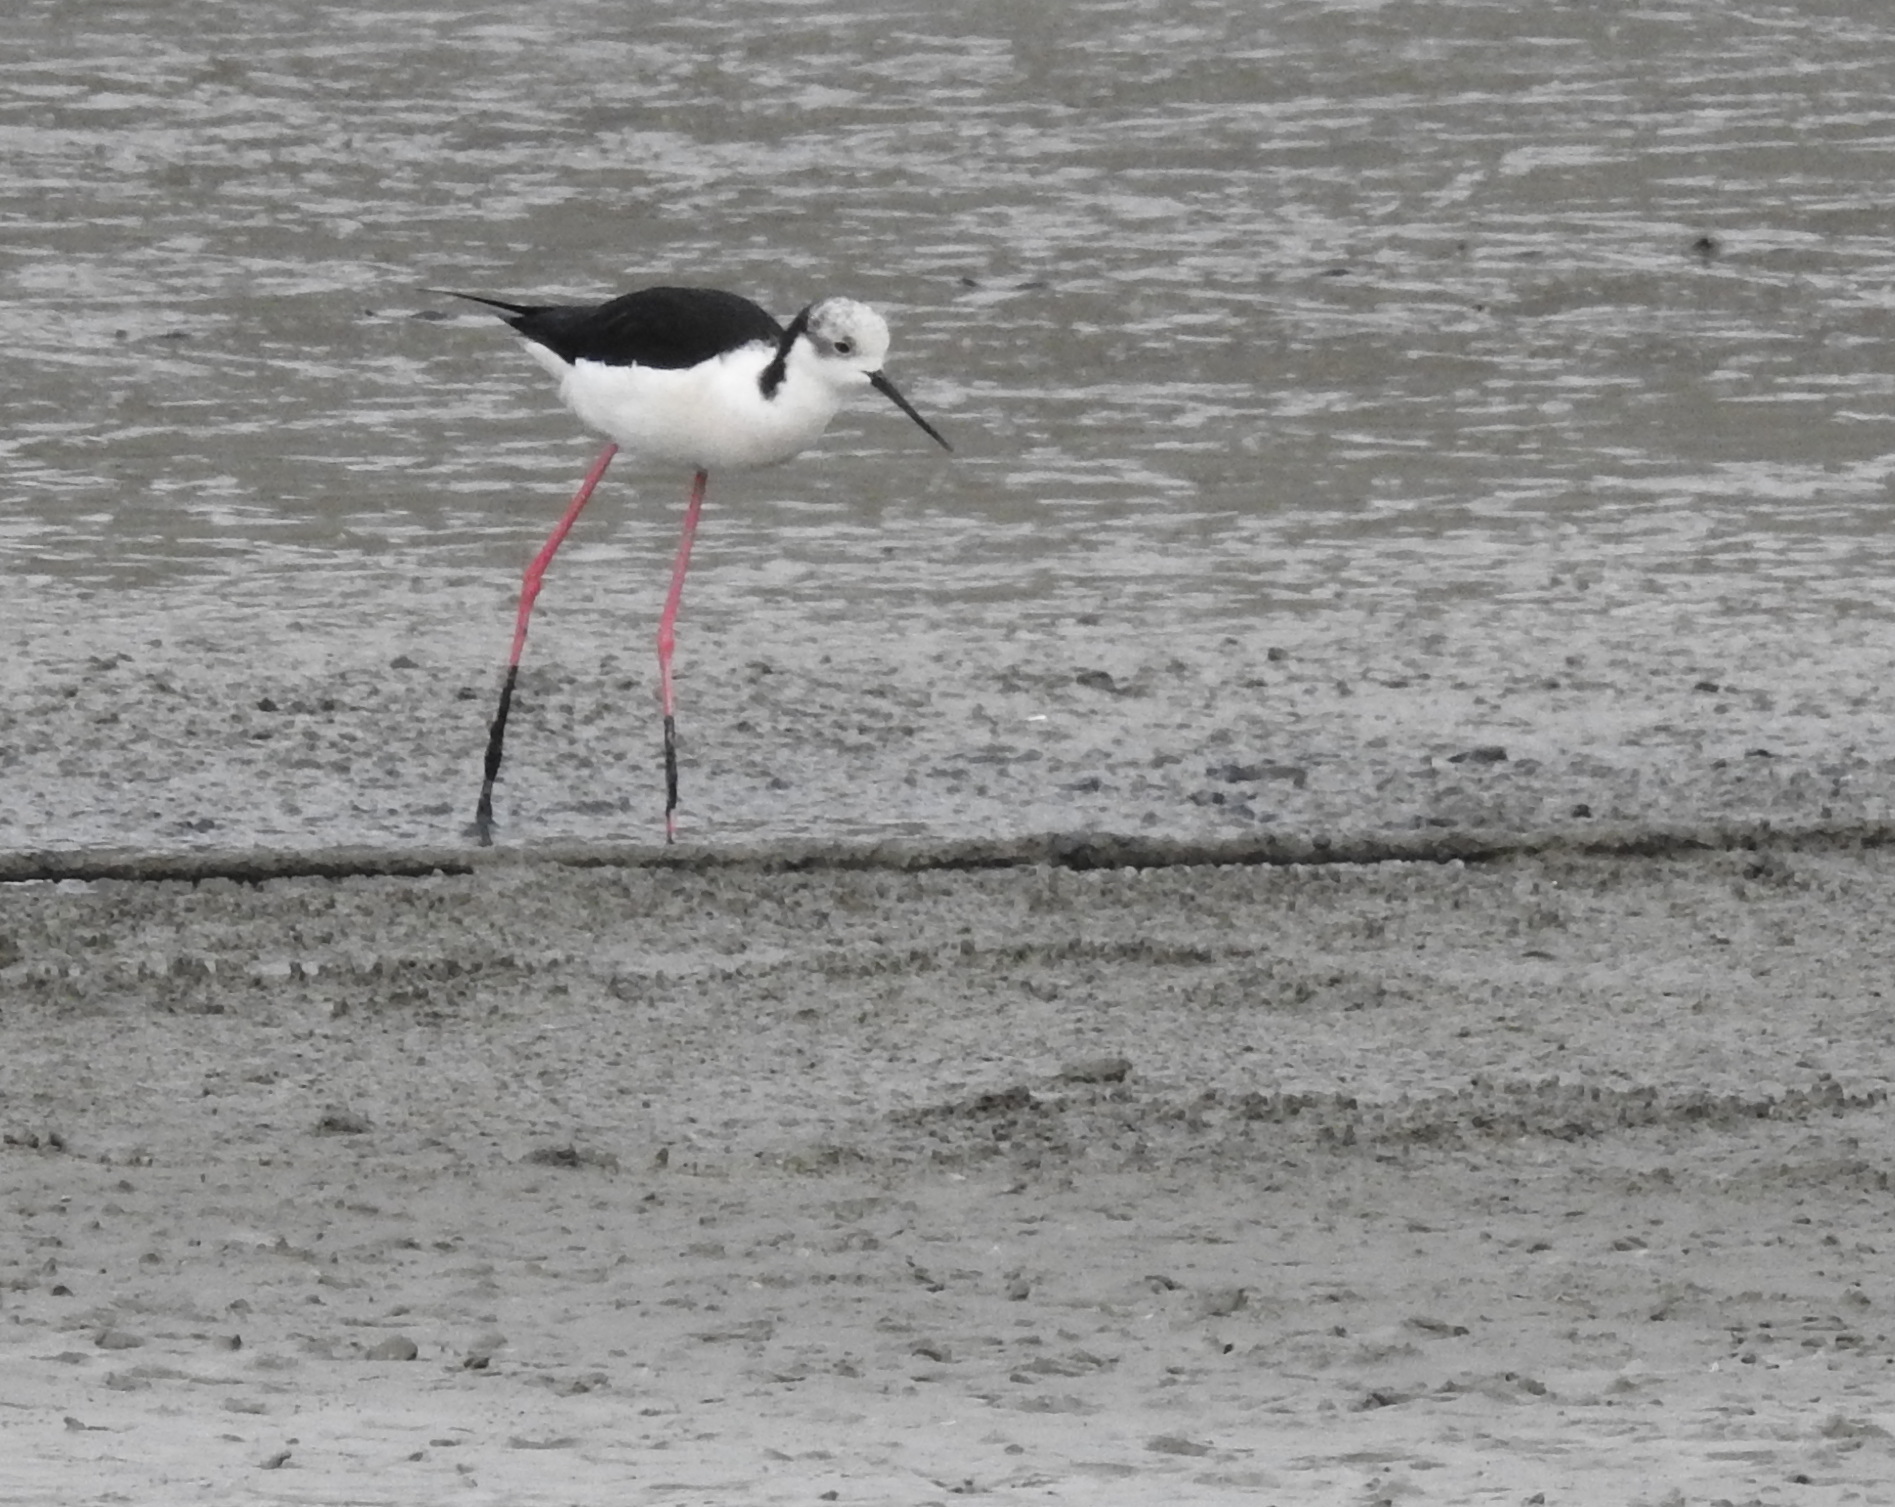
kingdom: Animalia
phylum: Chordata
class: Aves
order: Charadriiformes
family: Recurvirostridae
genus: Himantopus
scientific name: Himantopus himantopus
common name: Black-winged stilt
